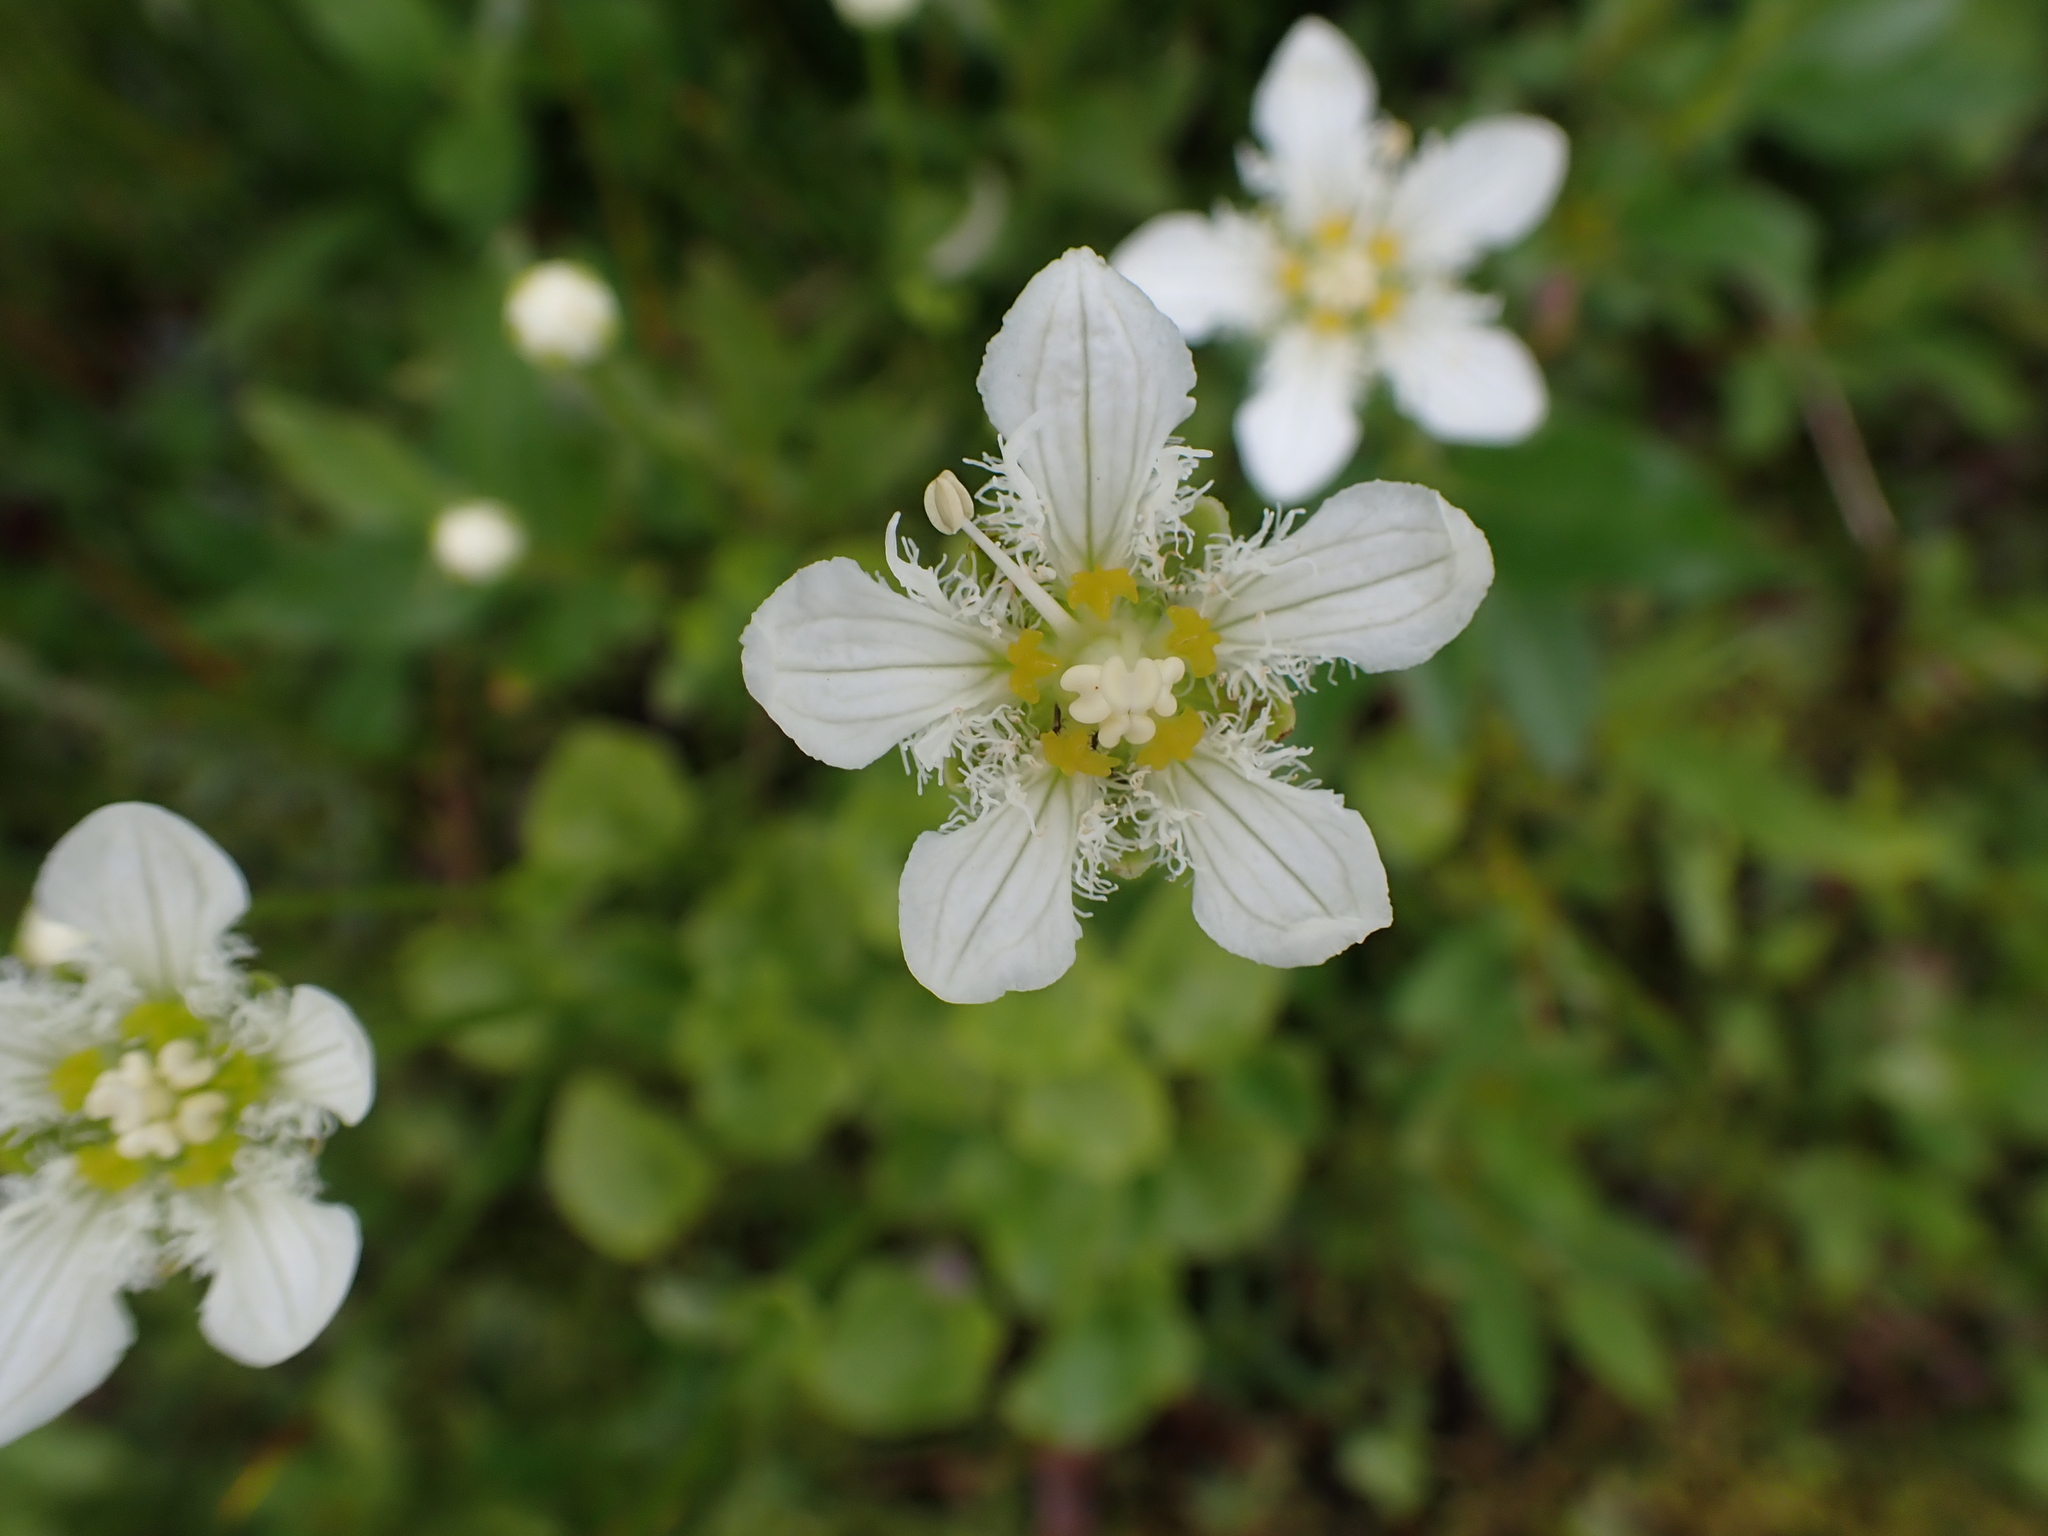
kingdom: Plantae
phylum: Tracheophyta
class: Magnoliopsida
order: Celastrales
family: Parnassiaceae
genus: Parnassia
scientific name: Parnassia fimbriata
